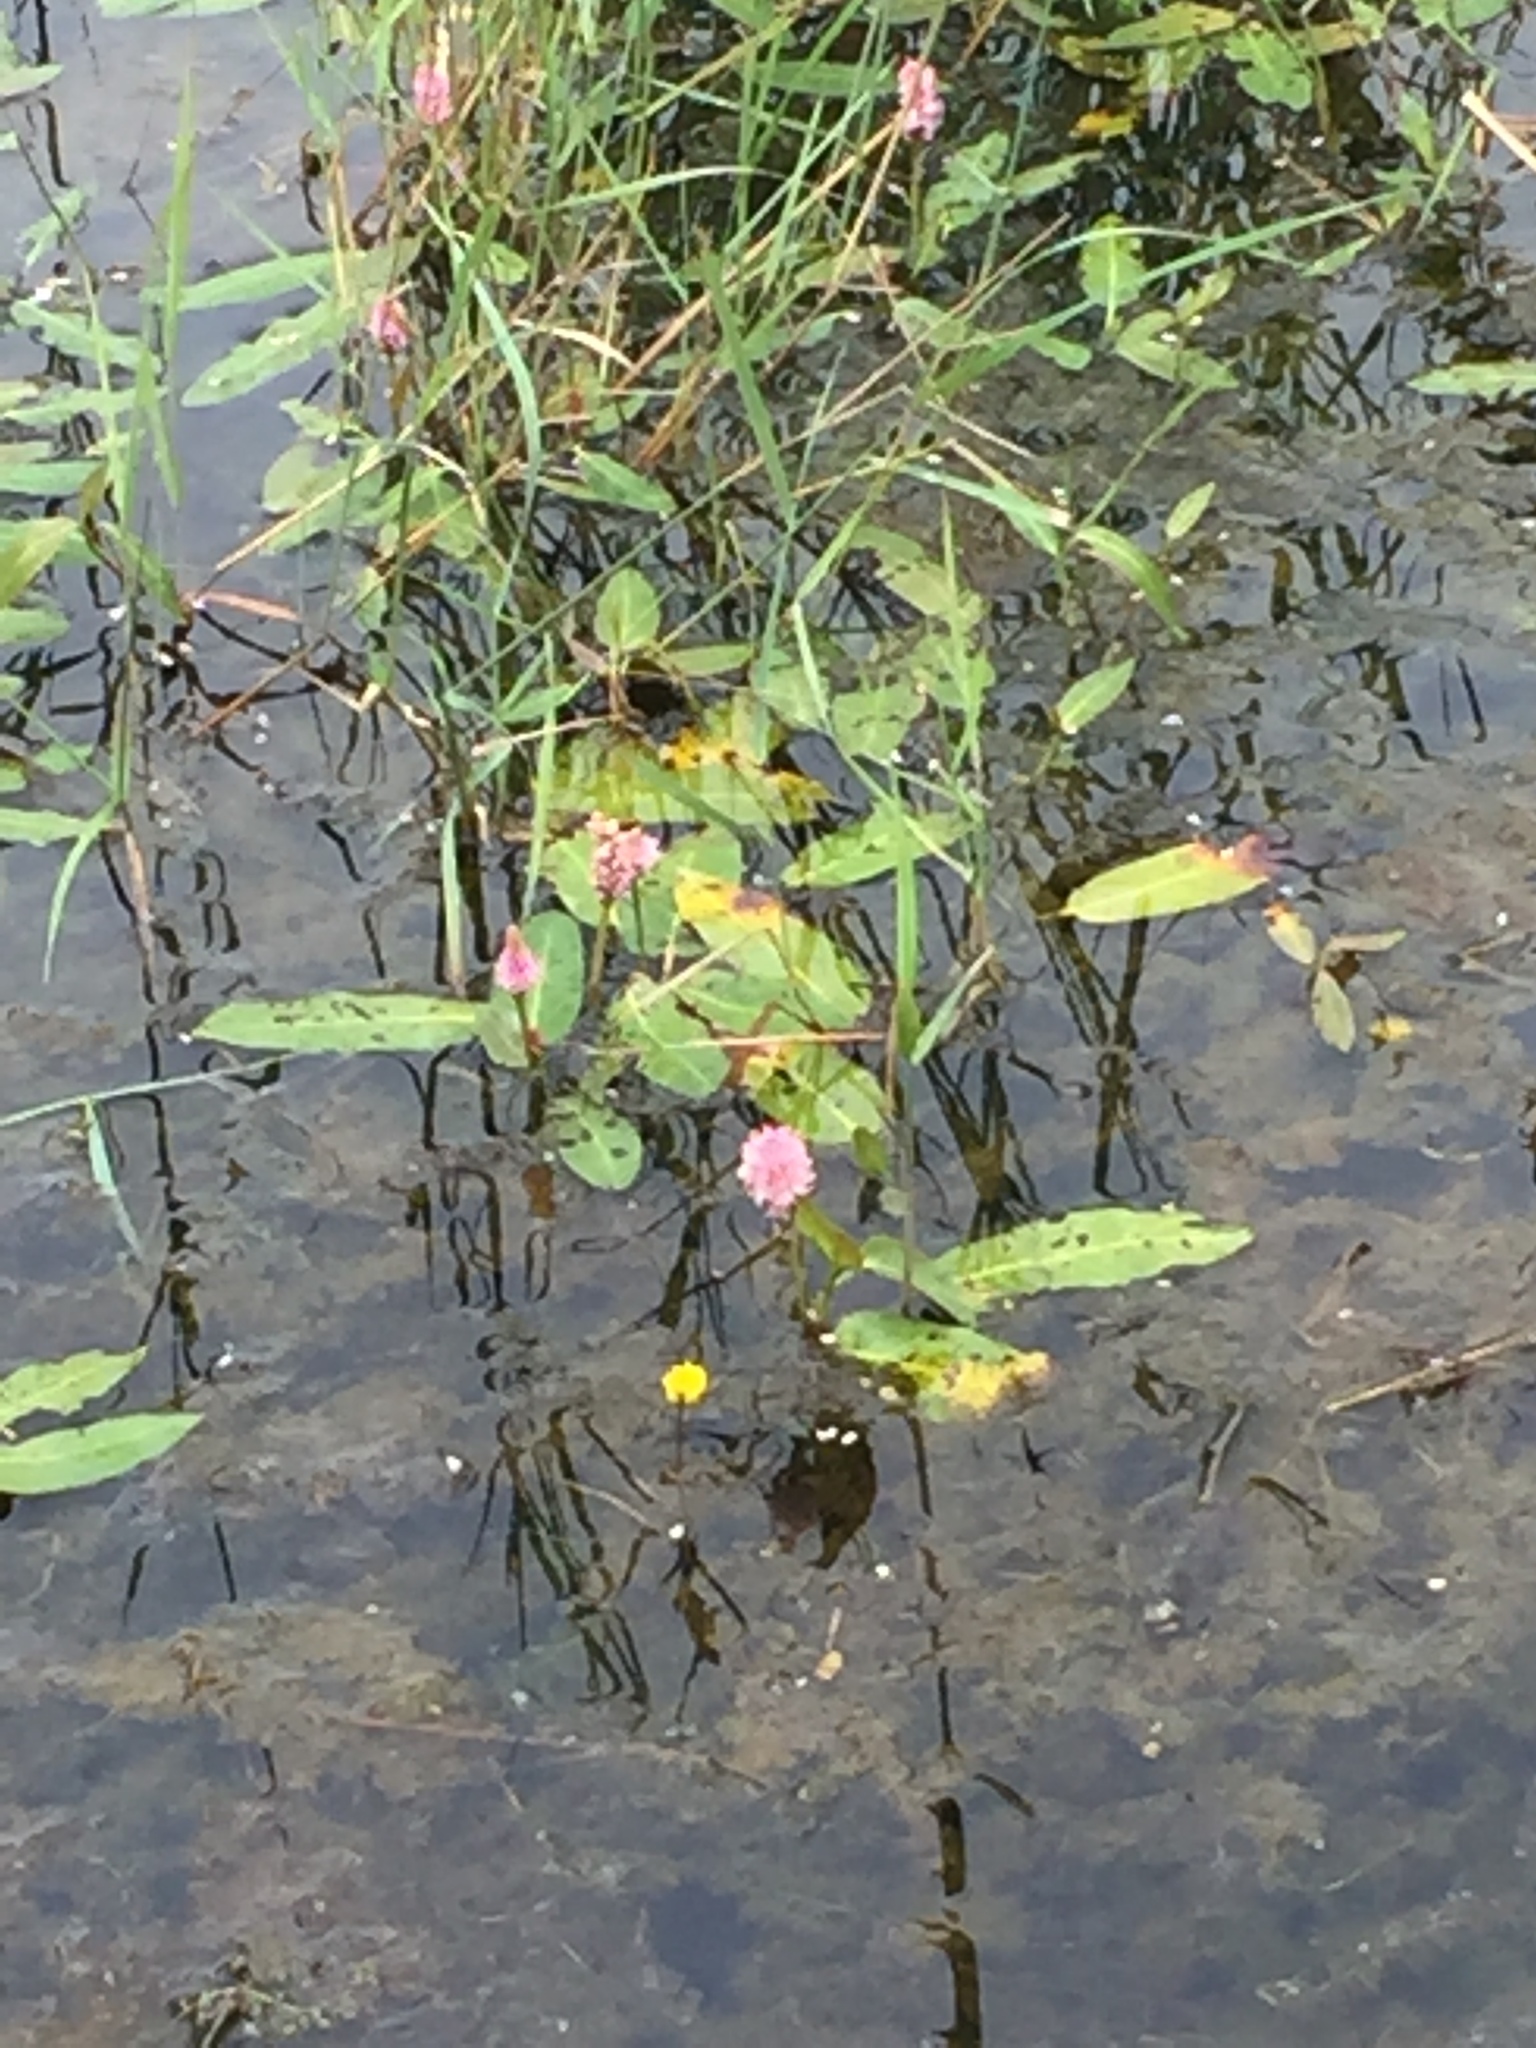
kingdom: Plantae
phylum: Tracheophyta
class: Magnoliopsida
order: Caryophyllales
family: Polygonaceae
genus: Persicaria
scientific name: Persicaria amphibia
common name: Amphibious bistort
